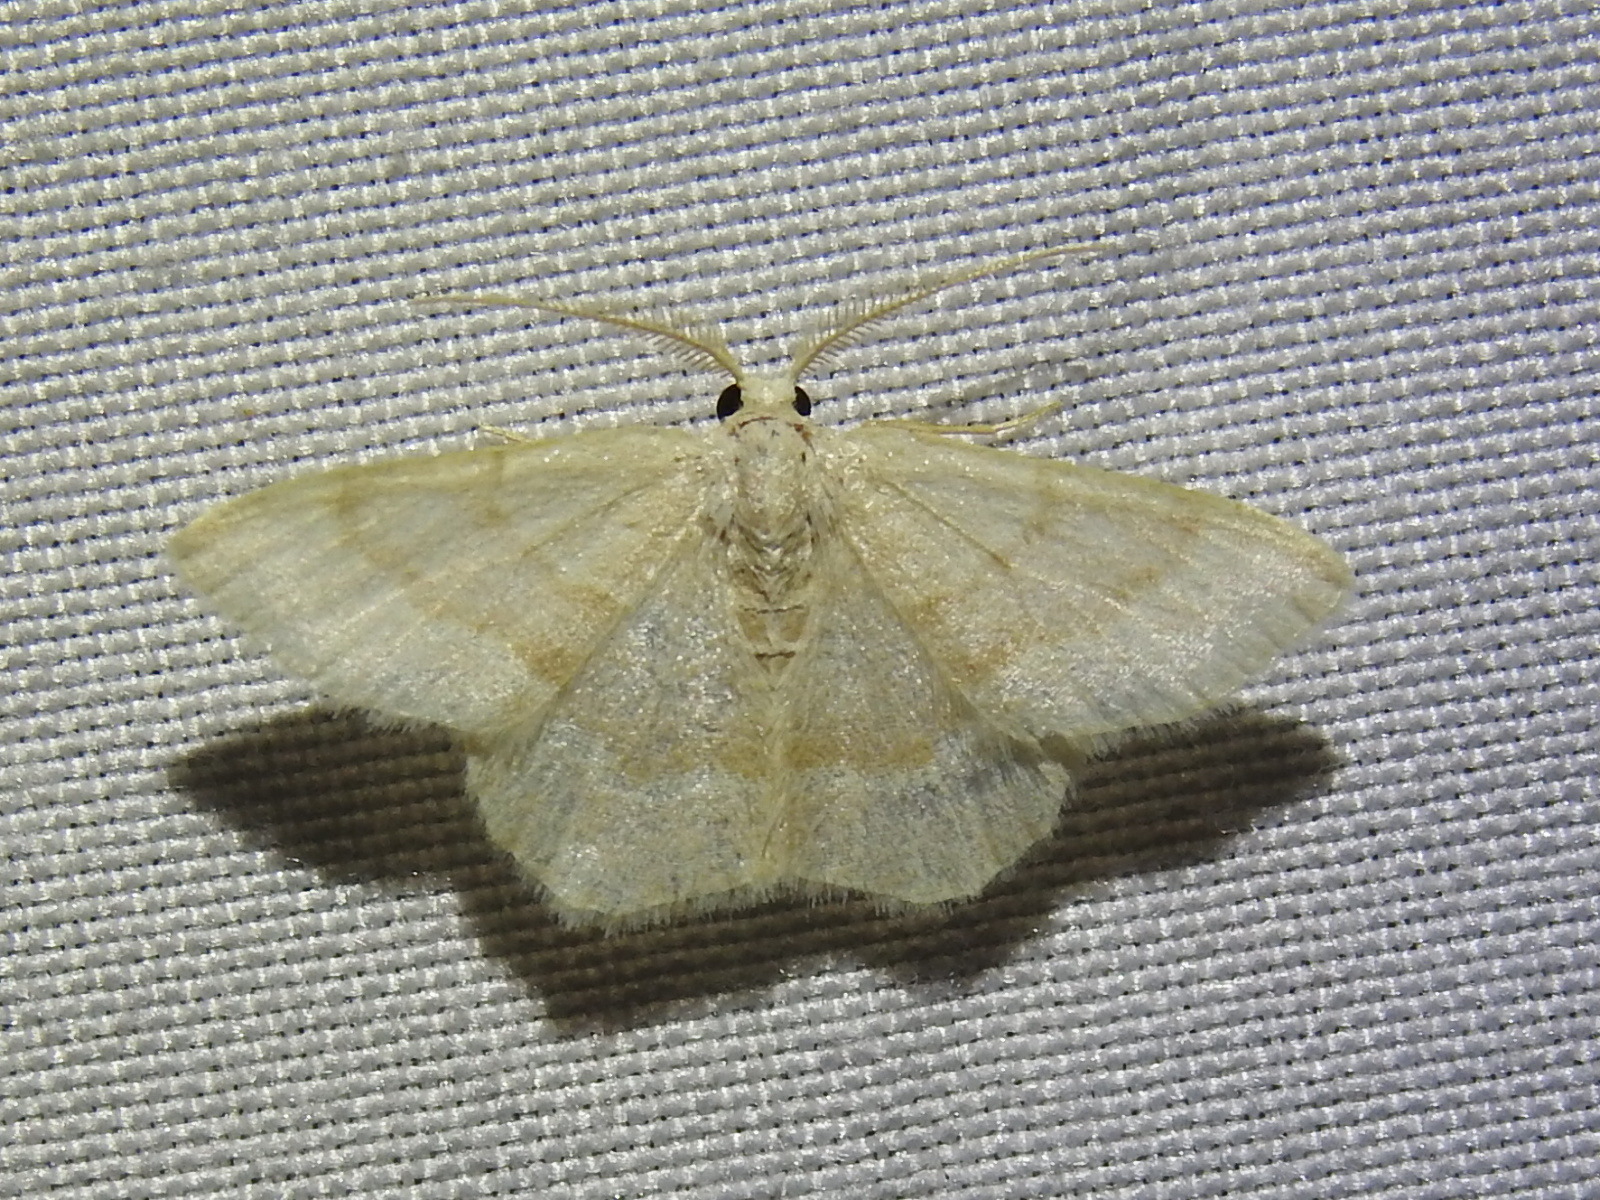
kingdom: Animalia
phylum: Arthropoda
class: Insecta
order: Lepidoptera
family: Geometridae
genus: Chlorochlamys
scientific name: Chlorochlamys appellaria
